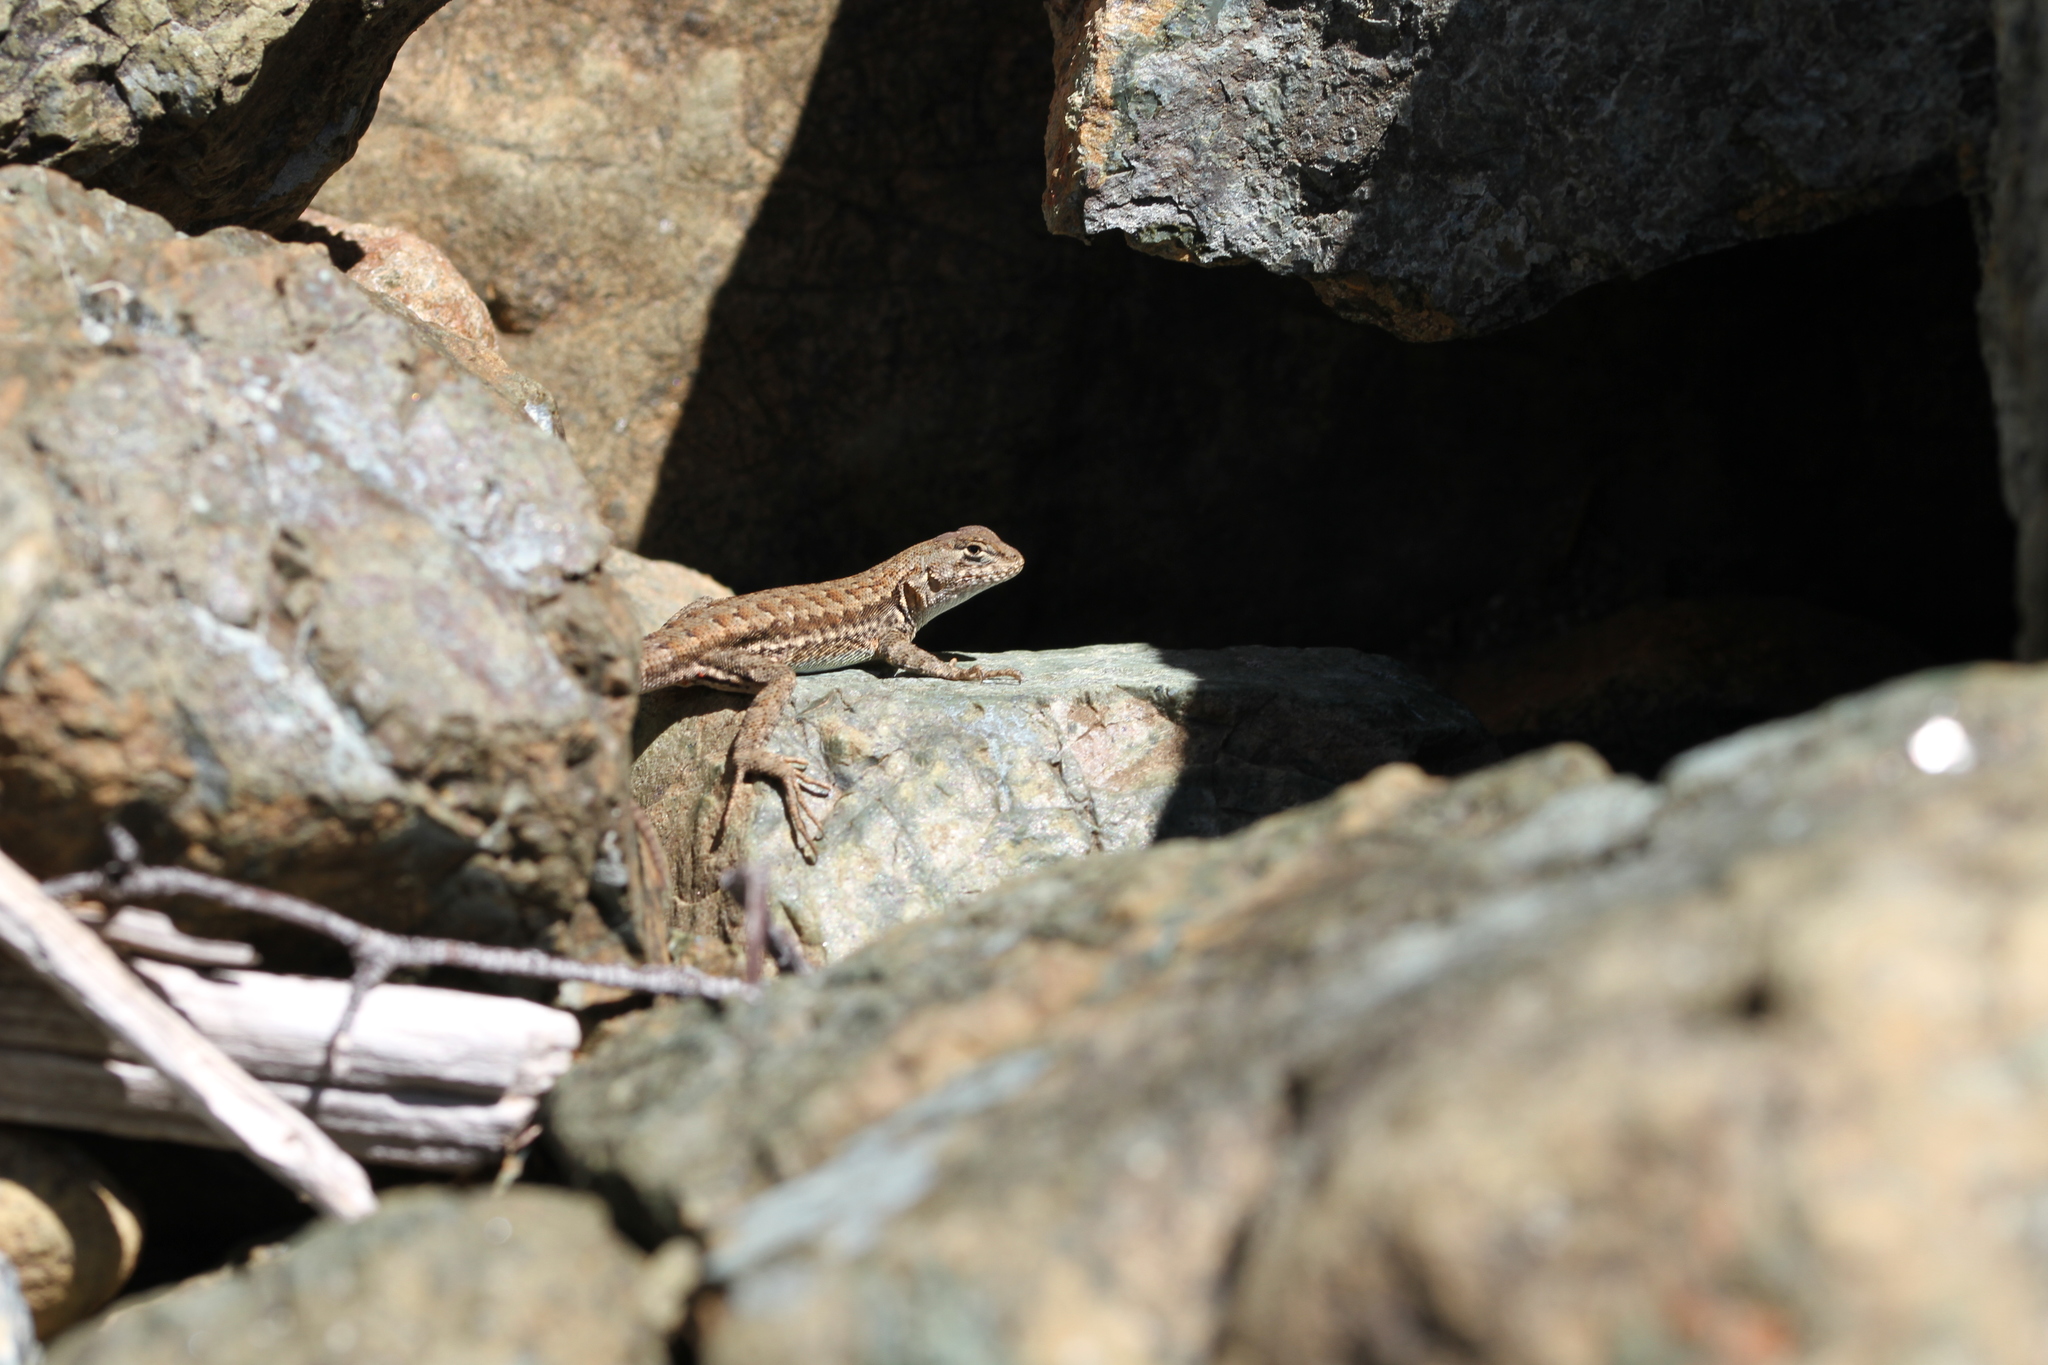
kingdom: Animalia
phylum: Chordata
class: Squamata
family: Phrynosomatidae
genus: Sceloporus
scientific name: Sceloporus graciosus
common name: Sagebrush lizard
